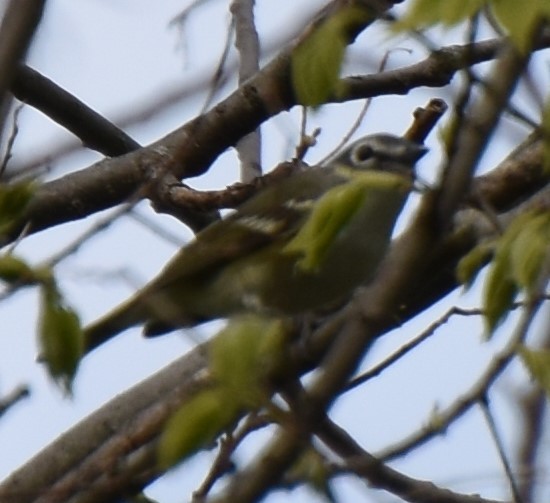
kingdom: Animalia
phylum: Chordata
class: Aves
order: Passeriformes
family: Vireonidae
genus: Vireo
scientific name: Vireo solitarius
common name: Blue-headed vireo
